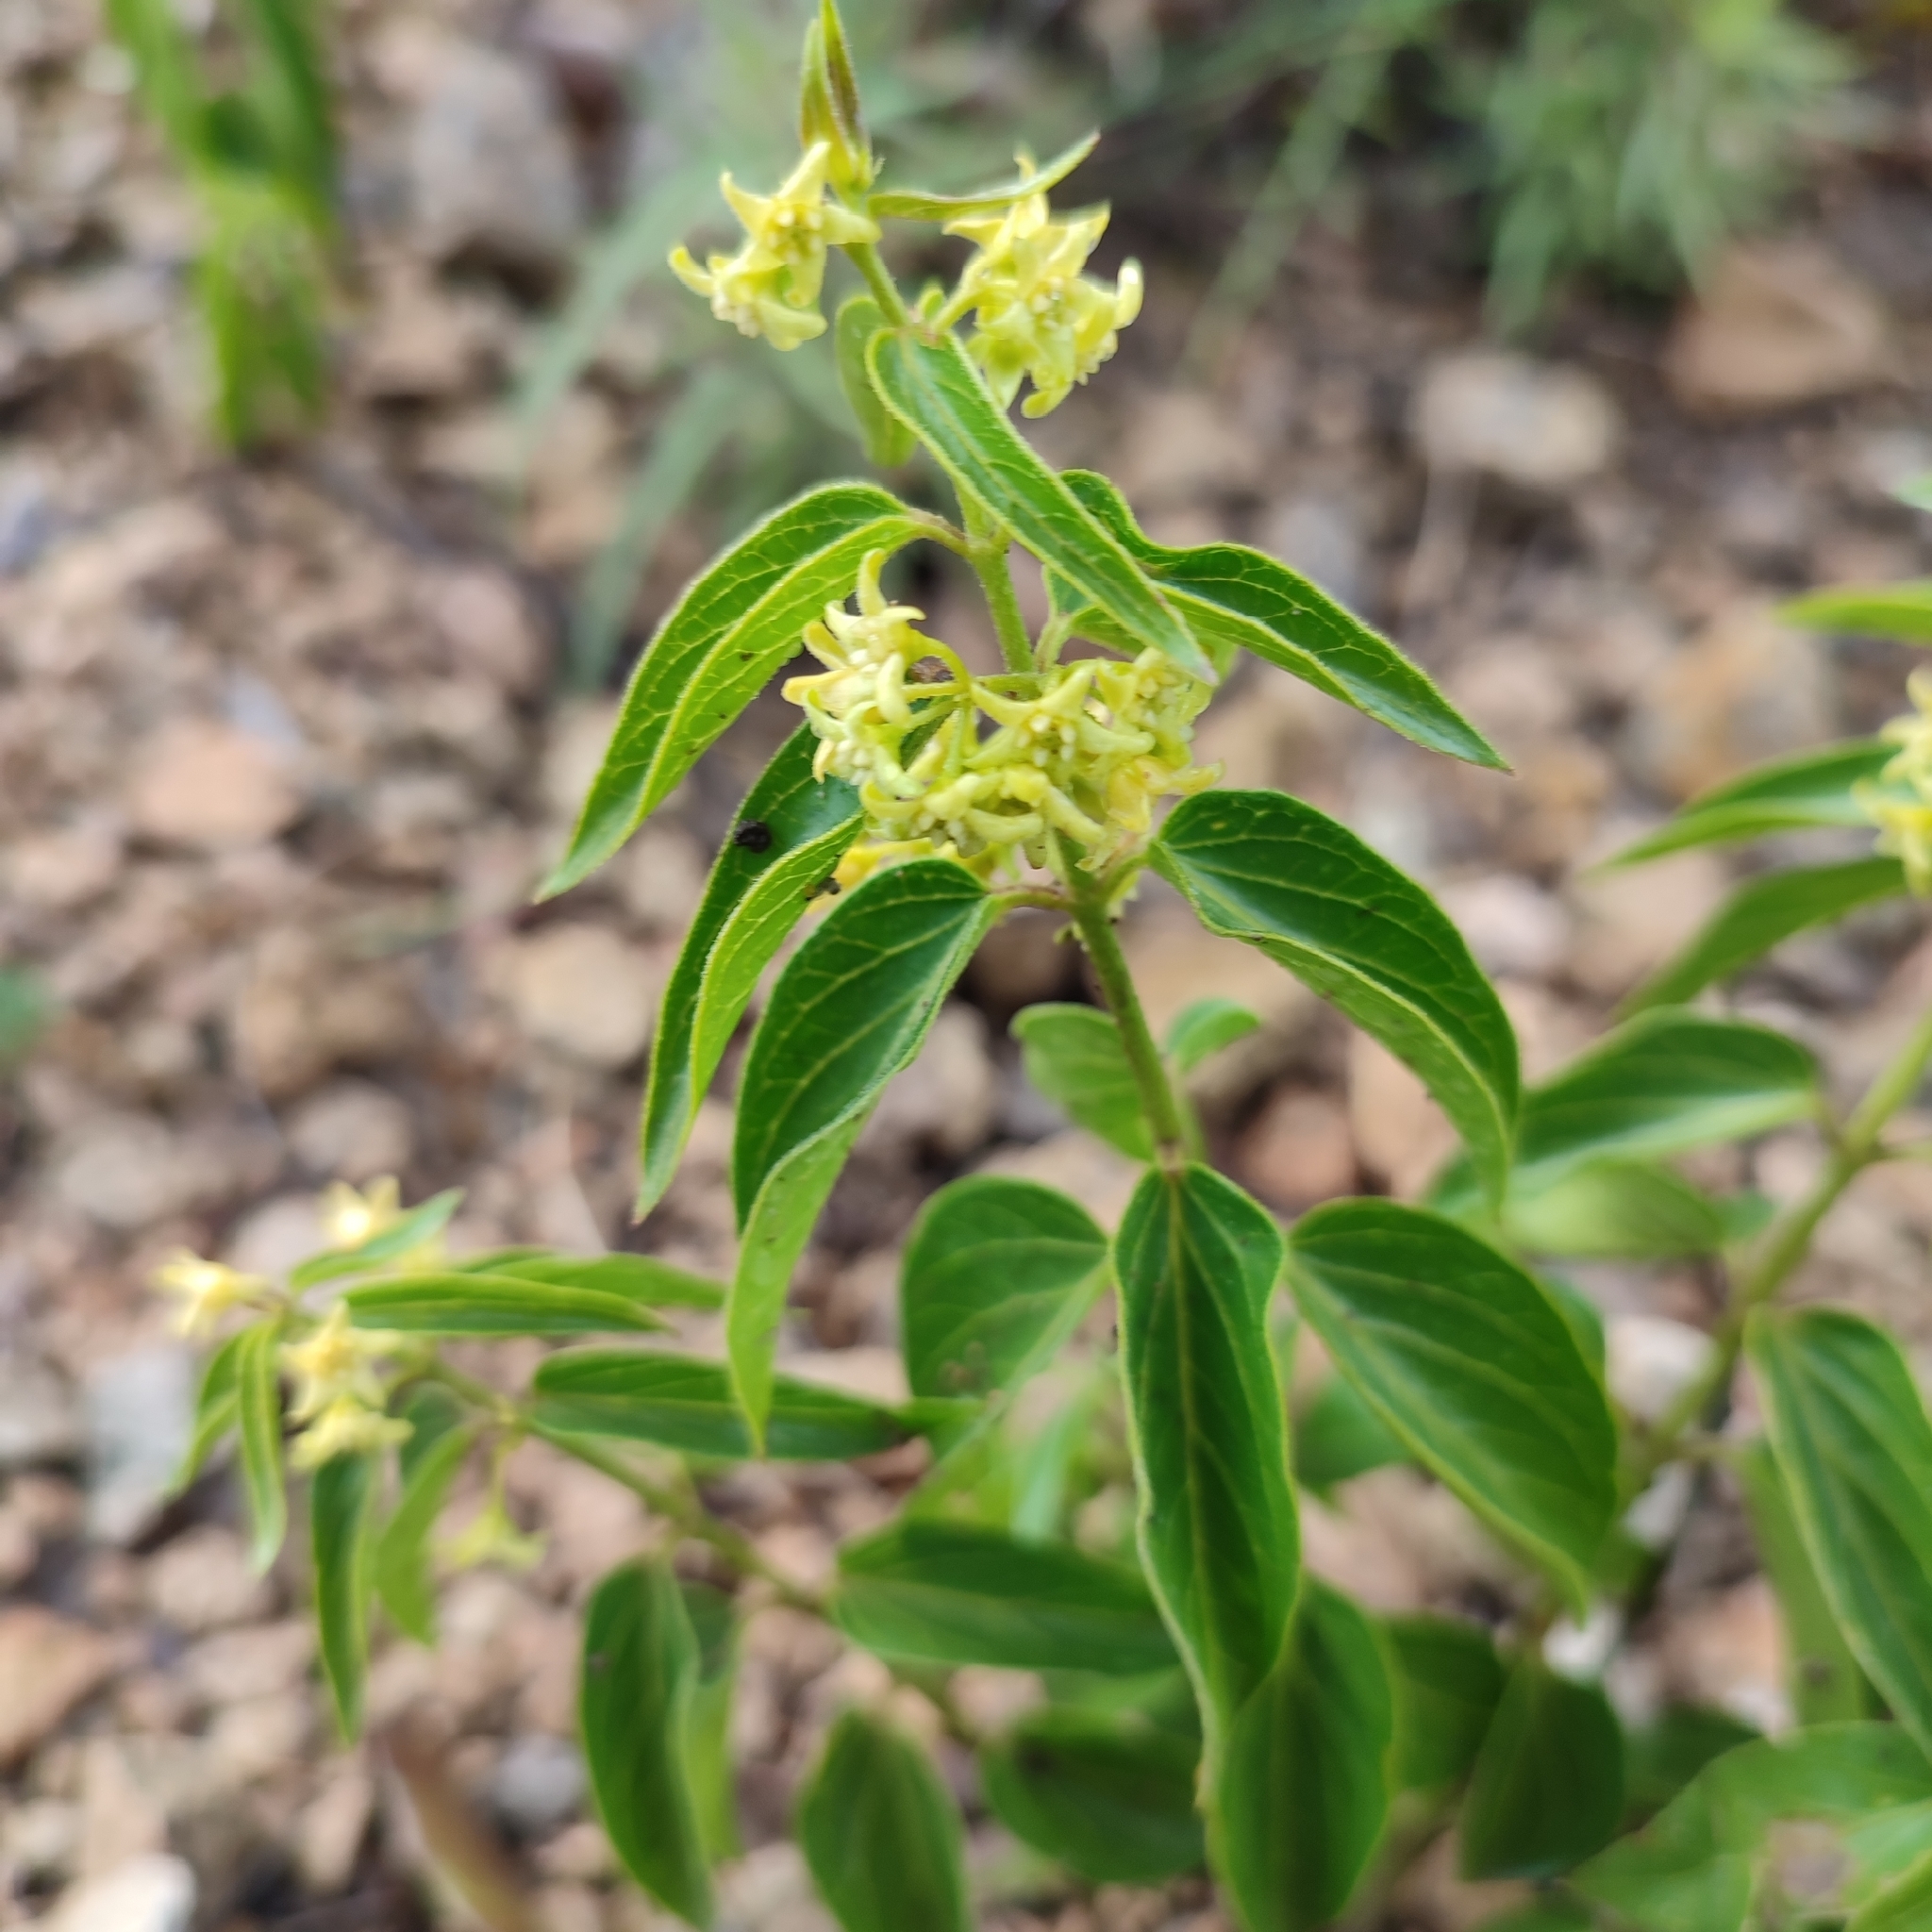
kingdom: Plantae
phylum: Tracheophyta
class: Magnoliopsida
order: Gentianales
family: Apocynaceae
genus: Vincetoxicum
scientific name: Vincetoxicum hirundinaria
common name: White swallowwort
